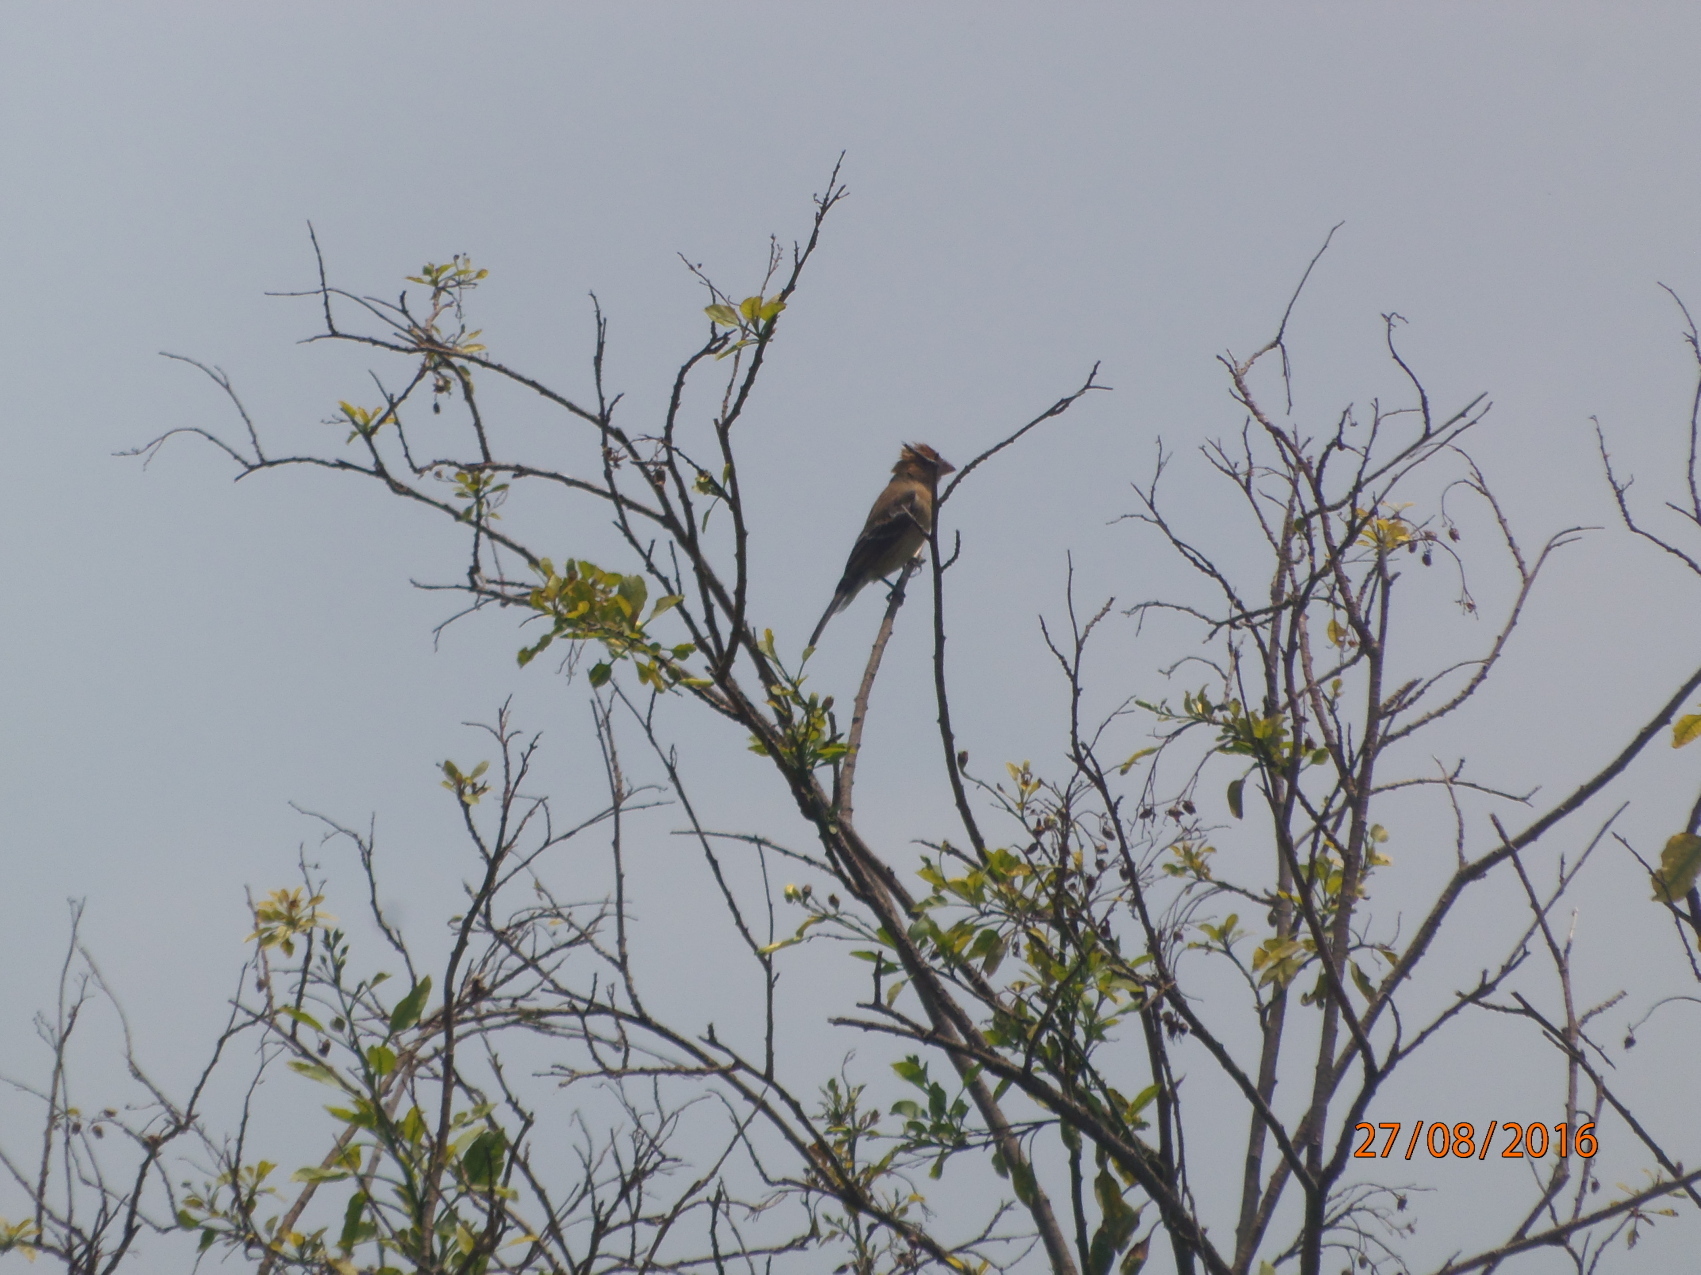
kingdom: Animalia
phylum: Chordata
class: Aves
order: Passeriformes
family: Cardinalidae
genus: Passerina
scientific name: Passerina caerulea
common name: Blue grosbeak
